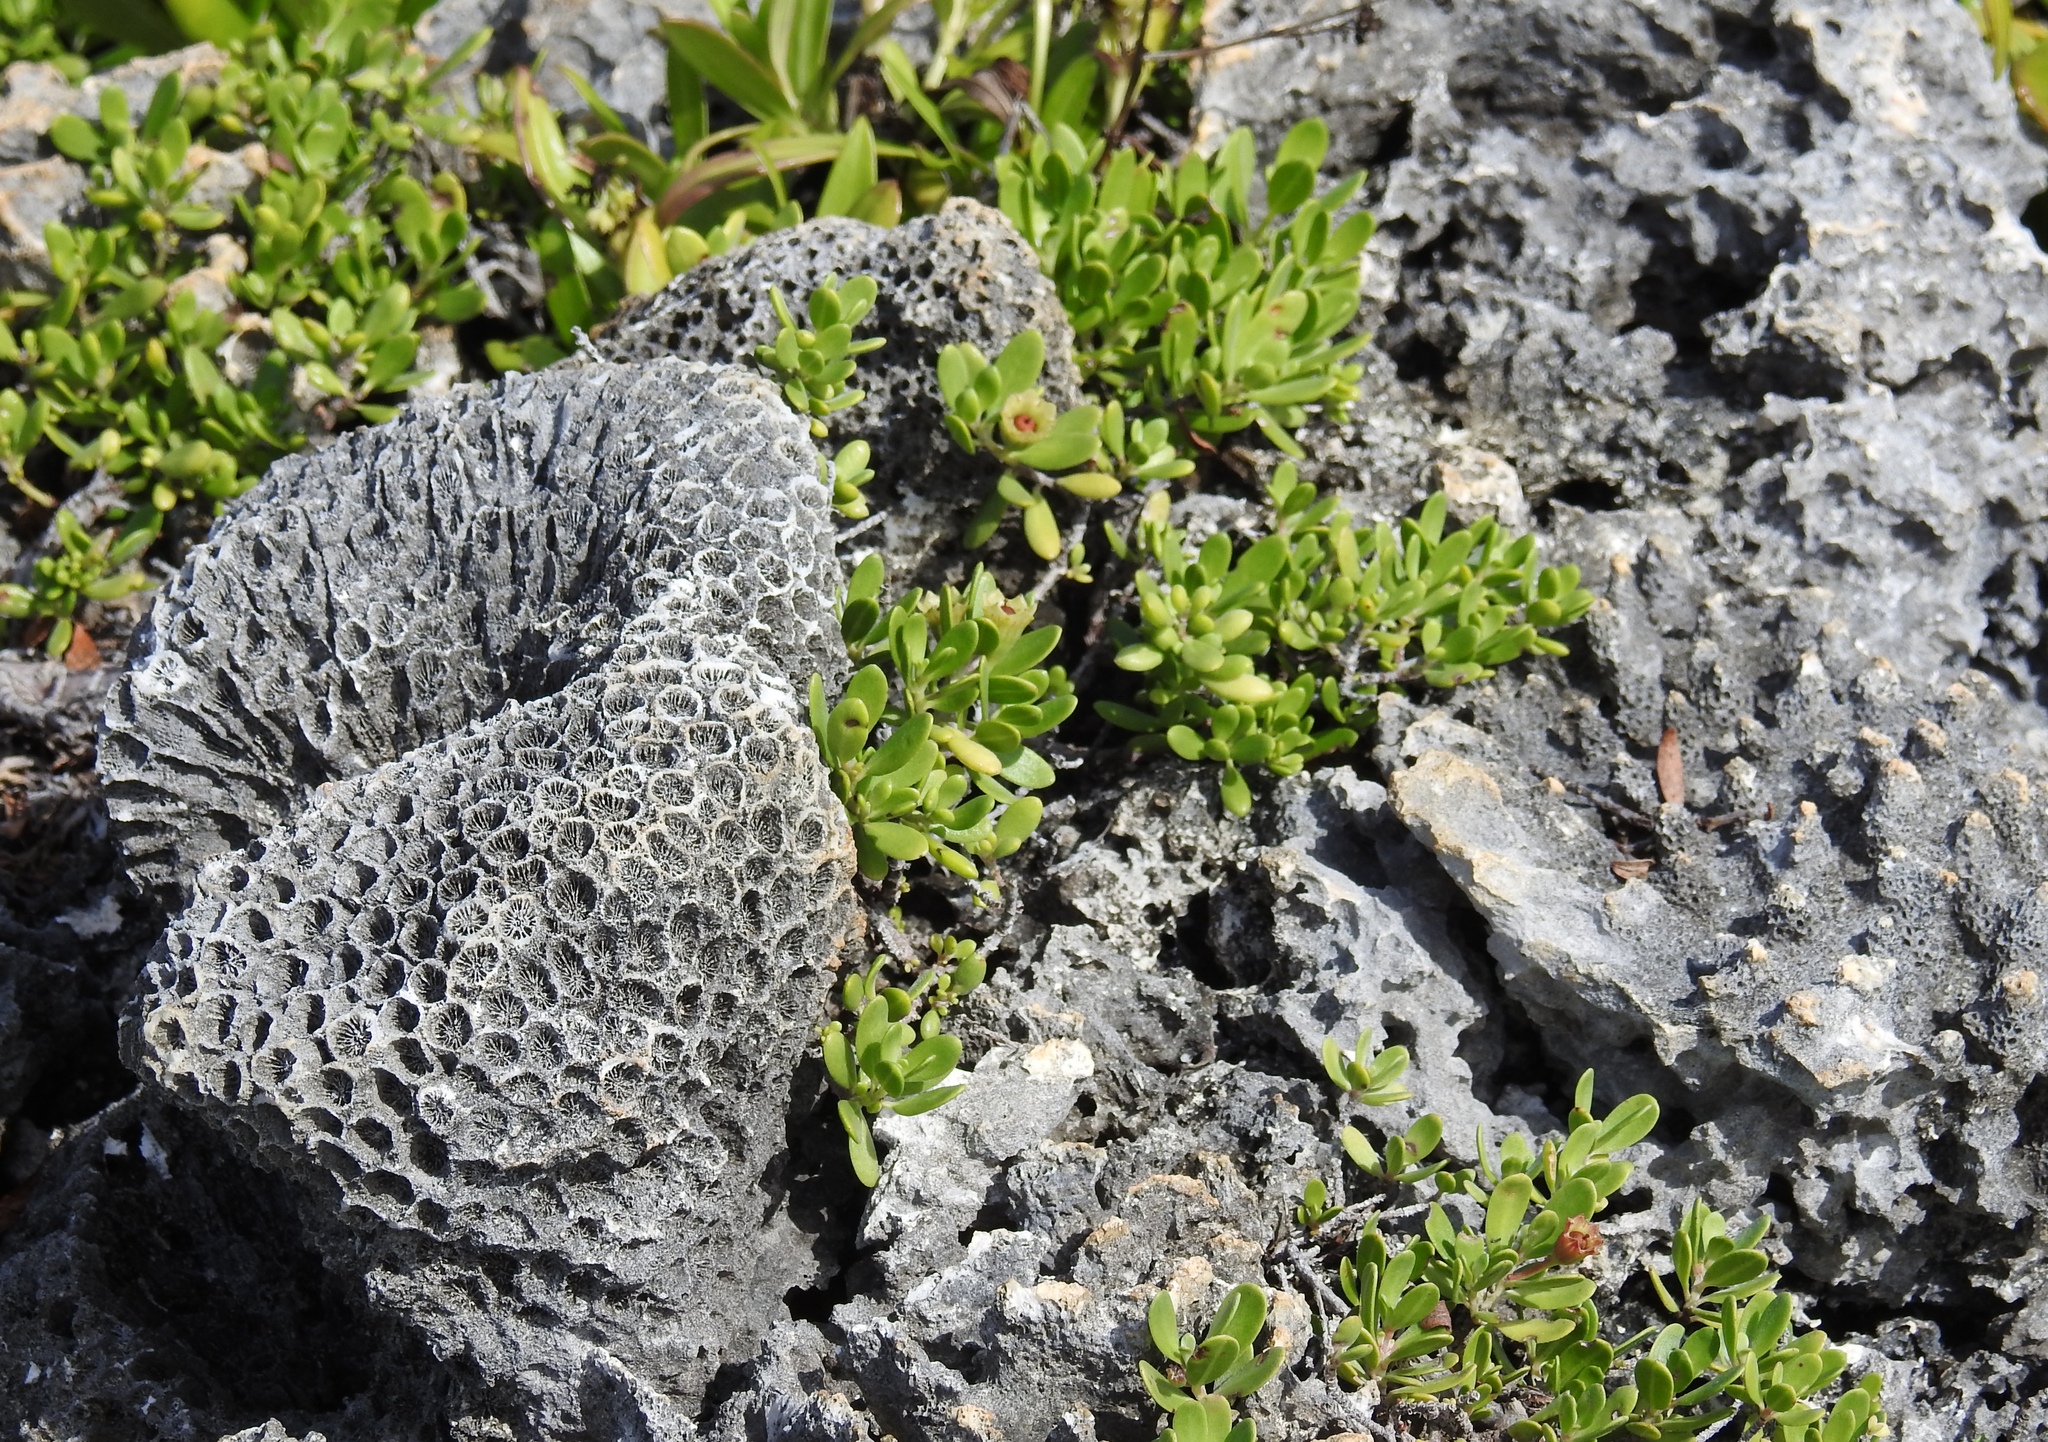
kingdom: Plantae
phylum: Tracheophyta
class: Magnoliopsida
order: Myrtales
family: Lythraceae
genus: Pemphis
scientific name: Pemphis acidula
